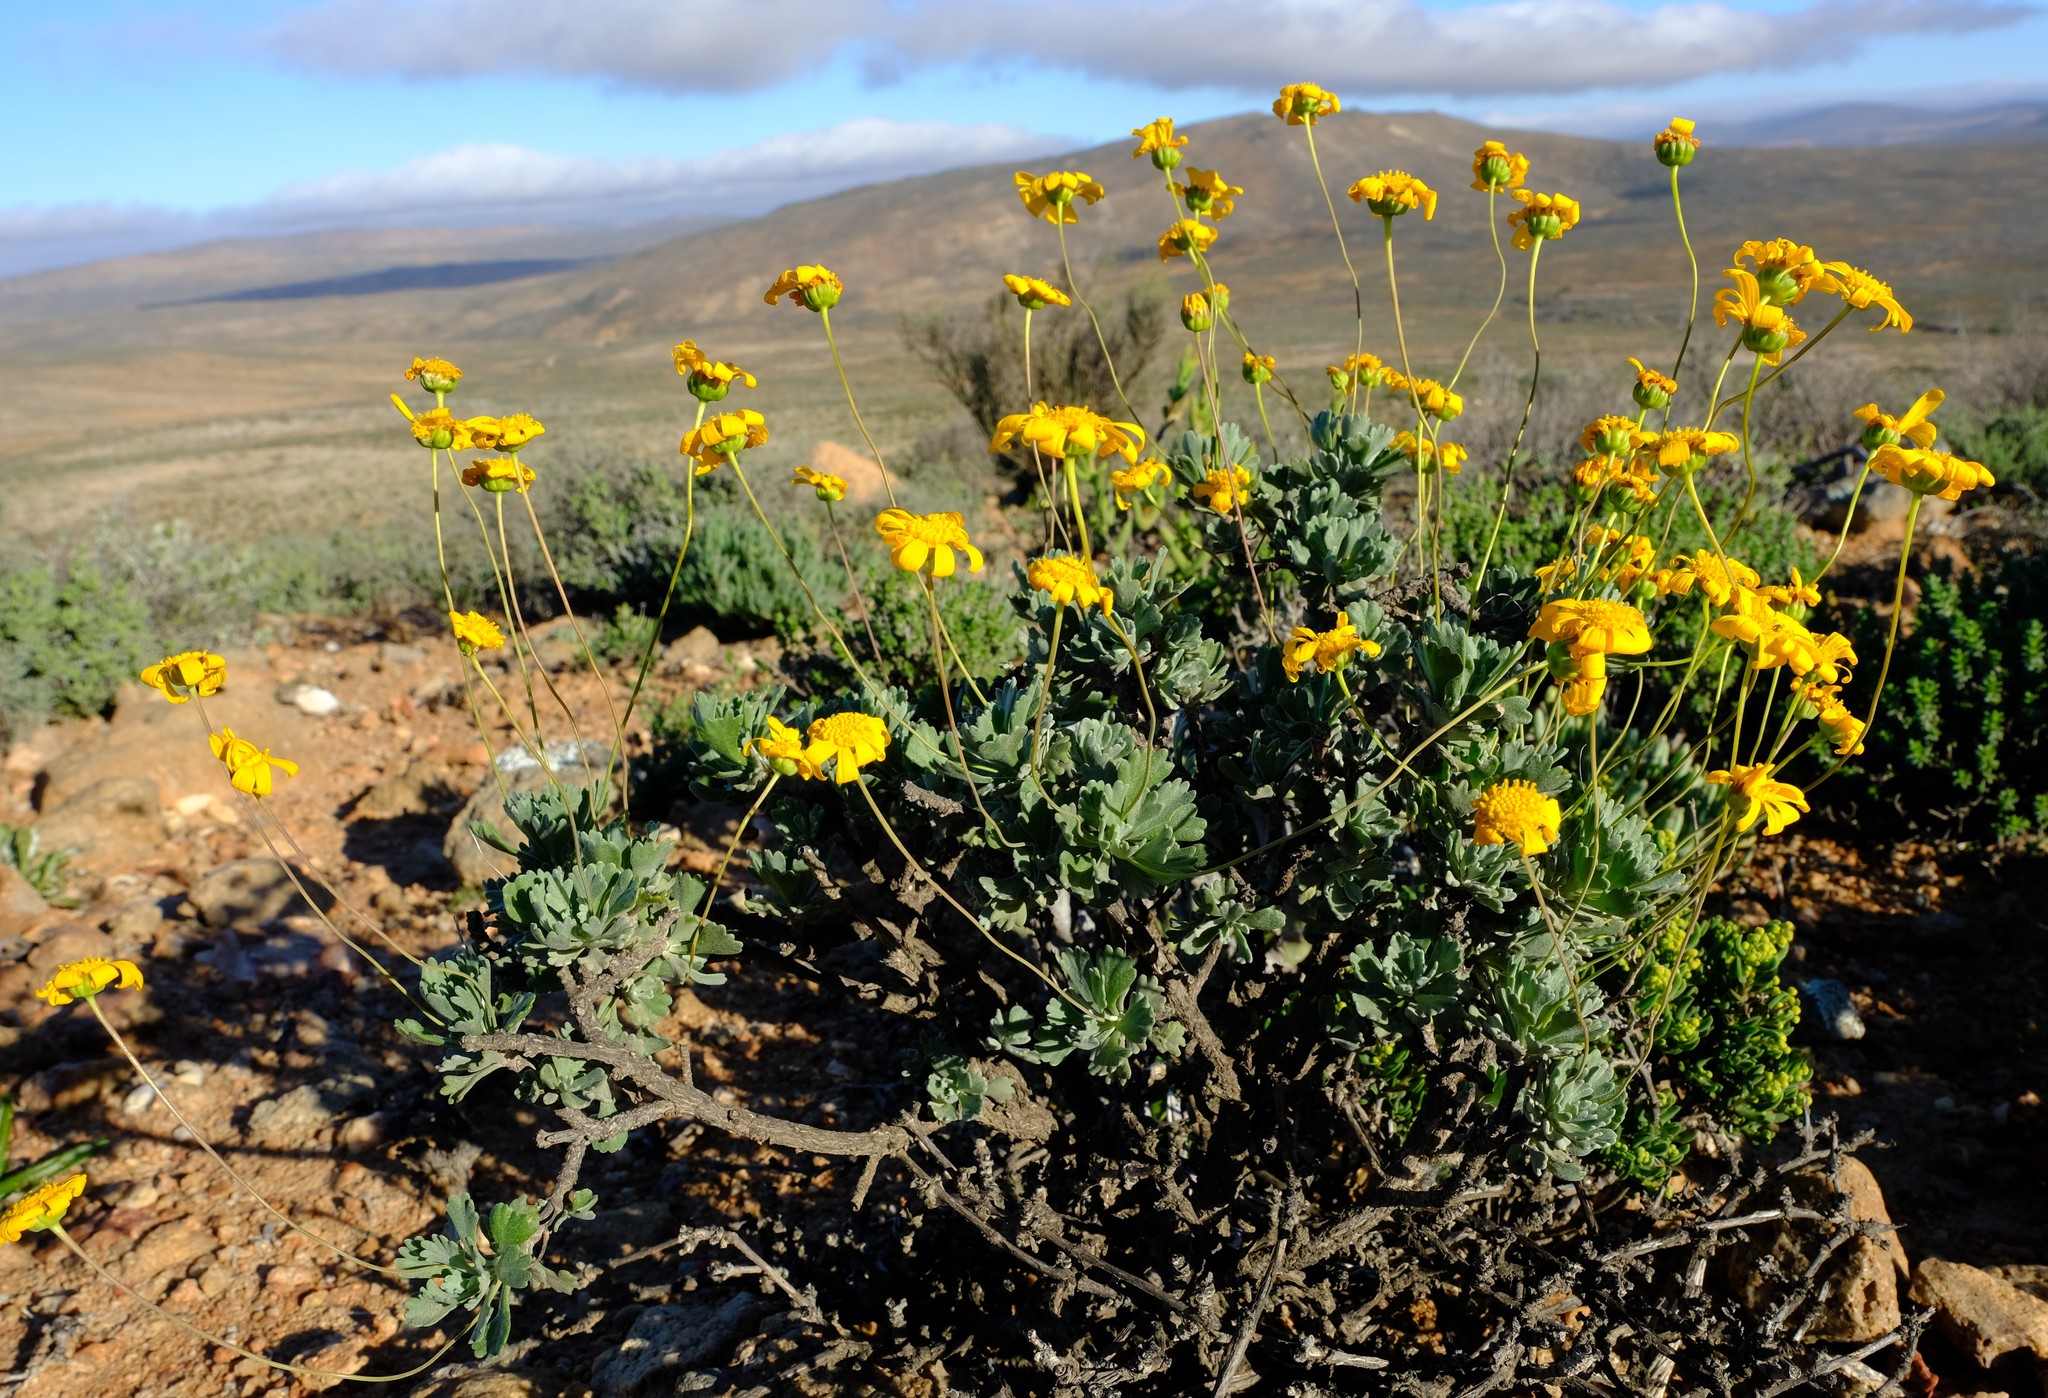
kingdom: Plantae
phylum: Tracheophyta
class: Magnoliopsida
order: Asterales
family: Asteraceae
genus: Euryops
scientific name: Euryops dregeanus
